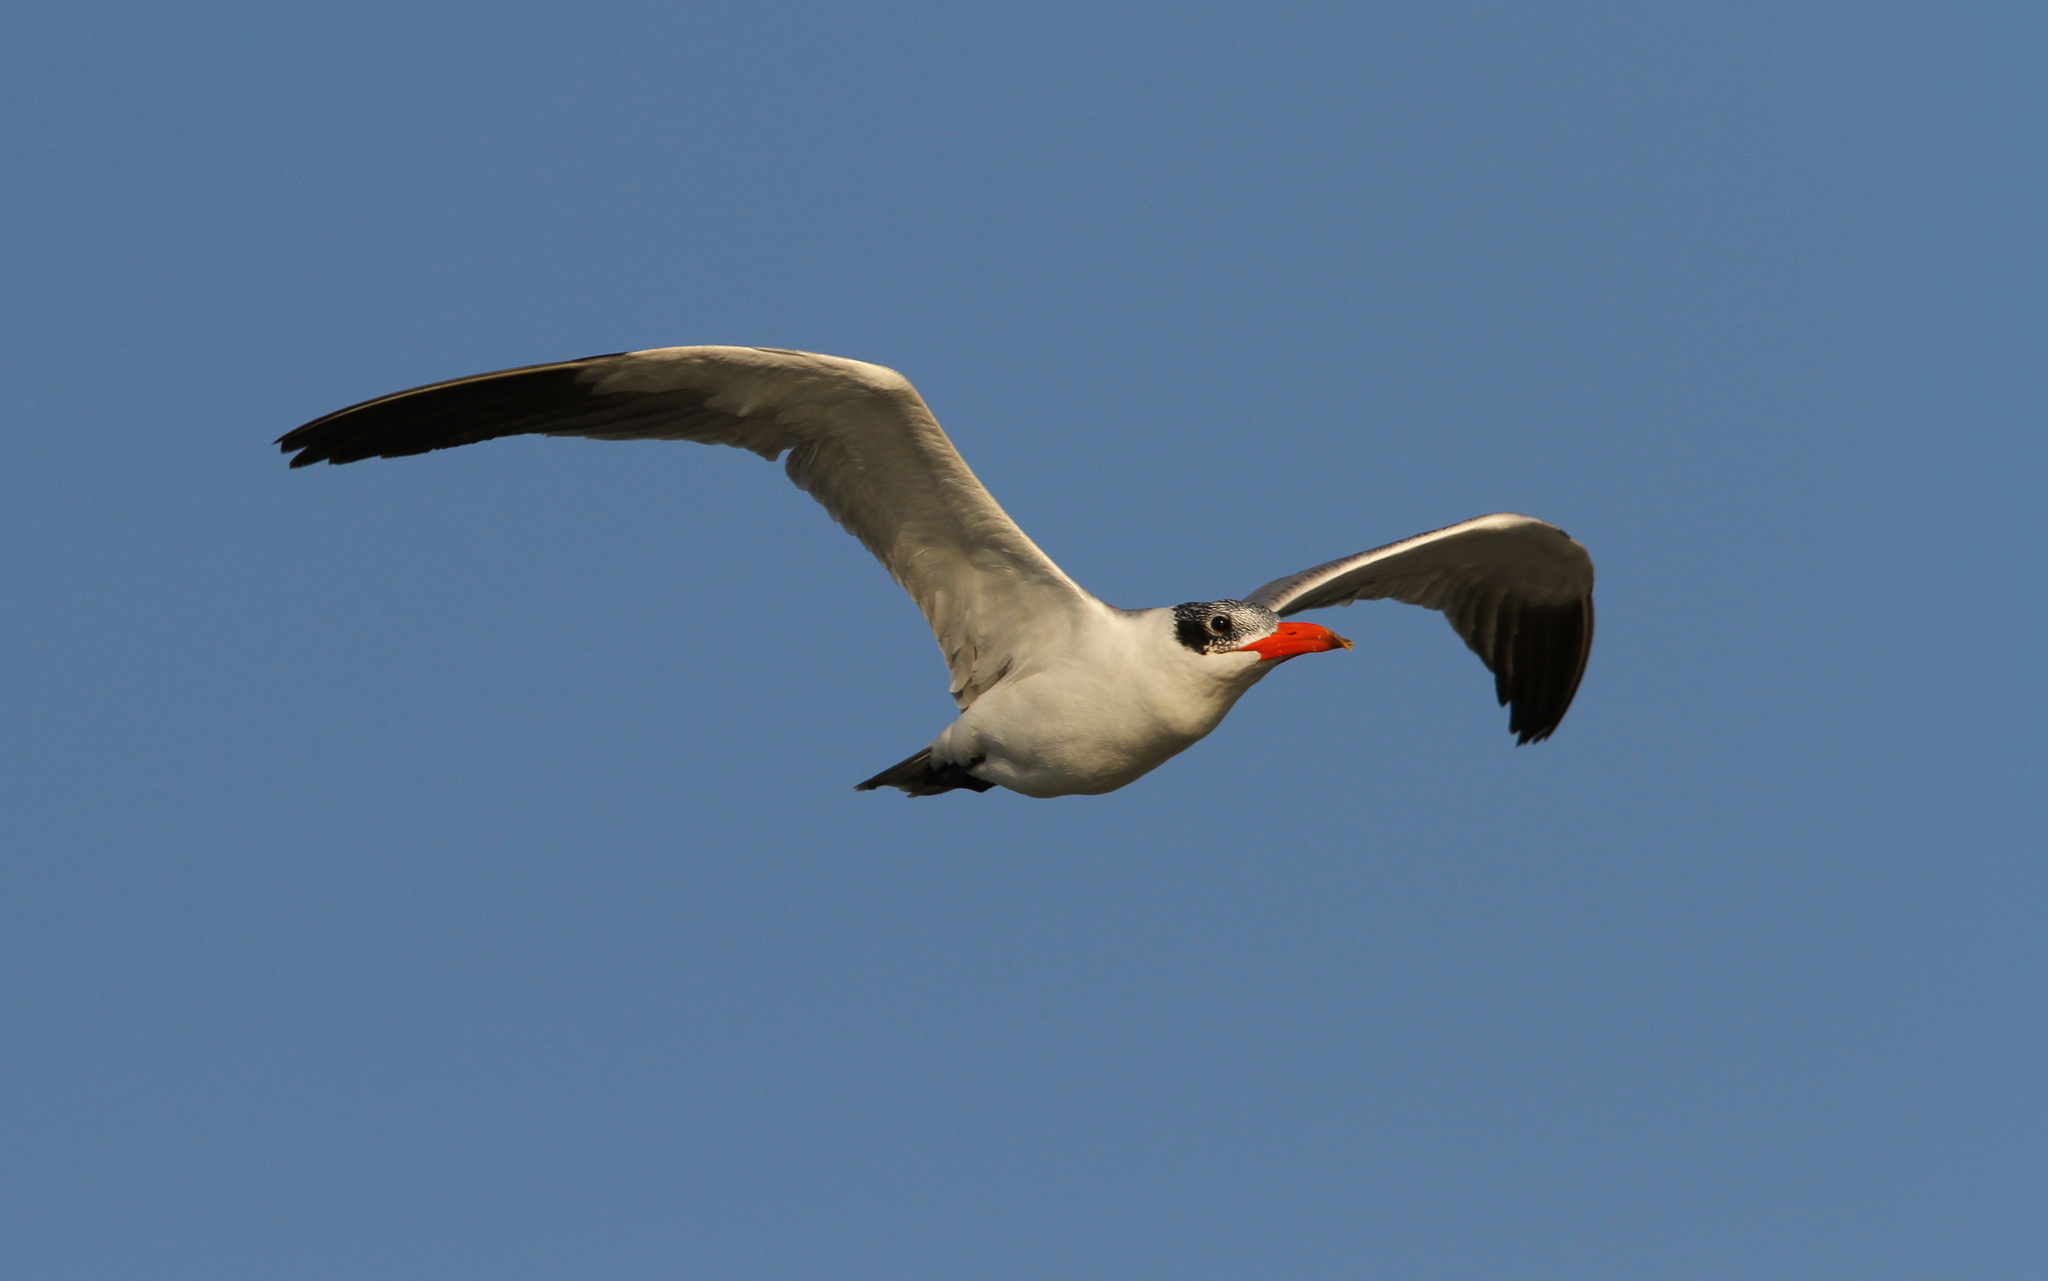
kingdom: Animalia
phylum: Chordata
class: Aves
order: Charadriiformes
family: Laridae
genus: Hydroprogne
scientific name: Hydroprogne caspia
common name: Caspian tern
